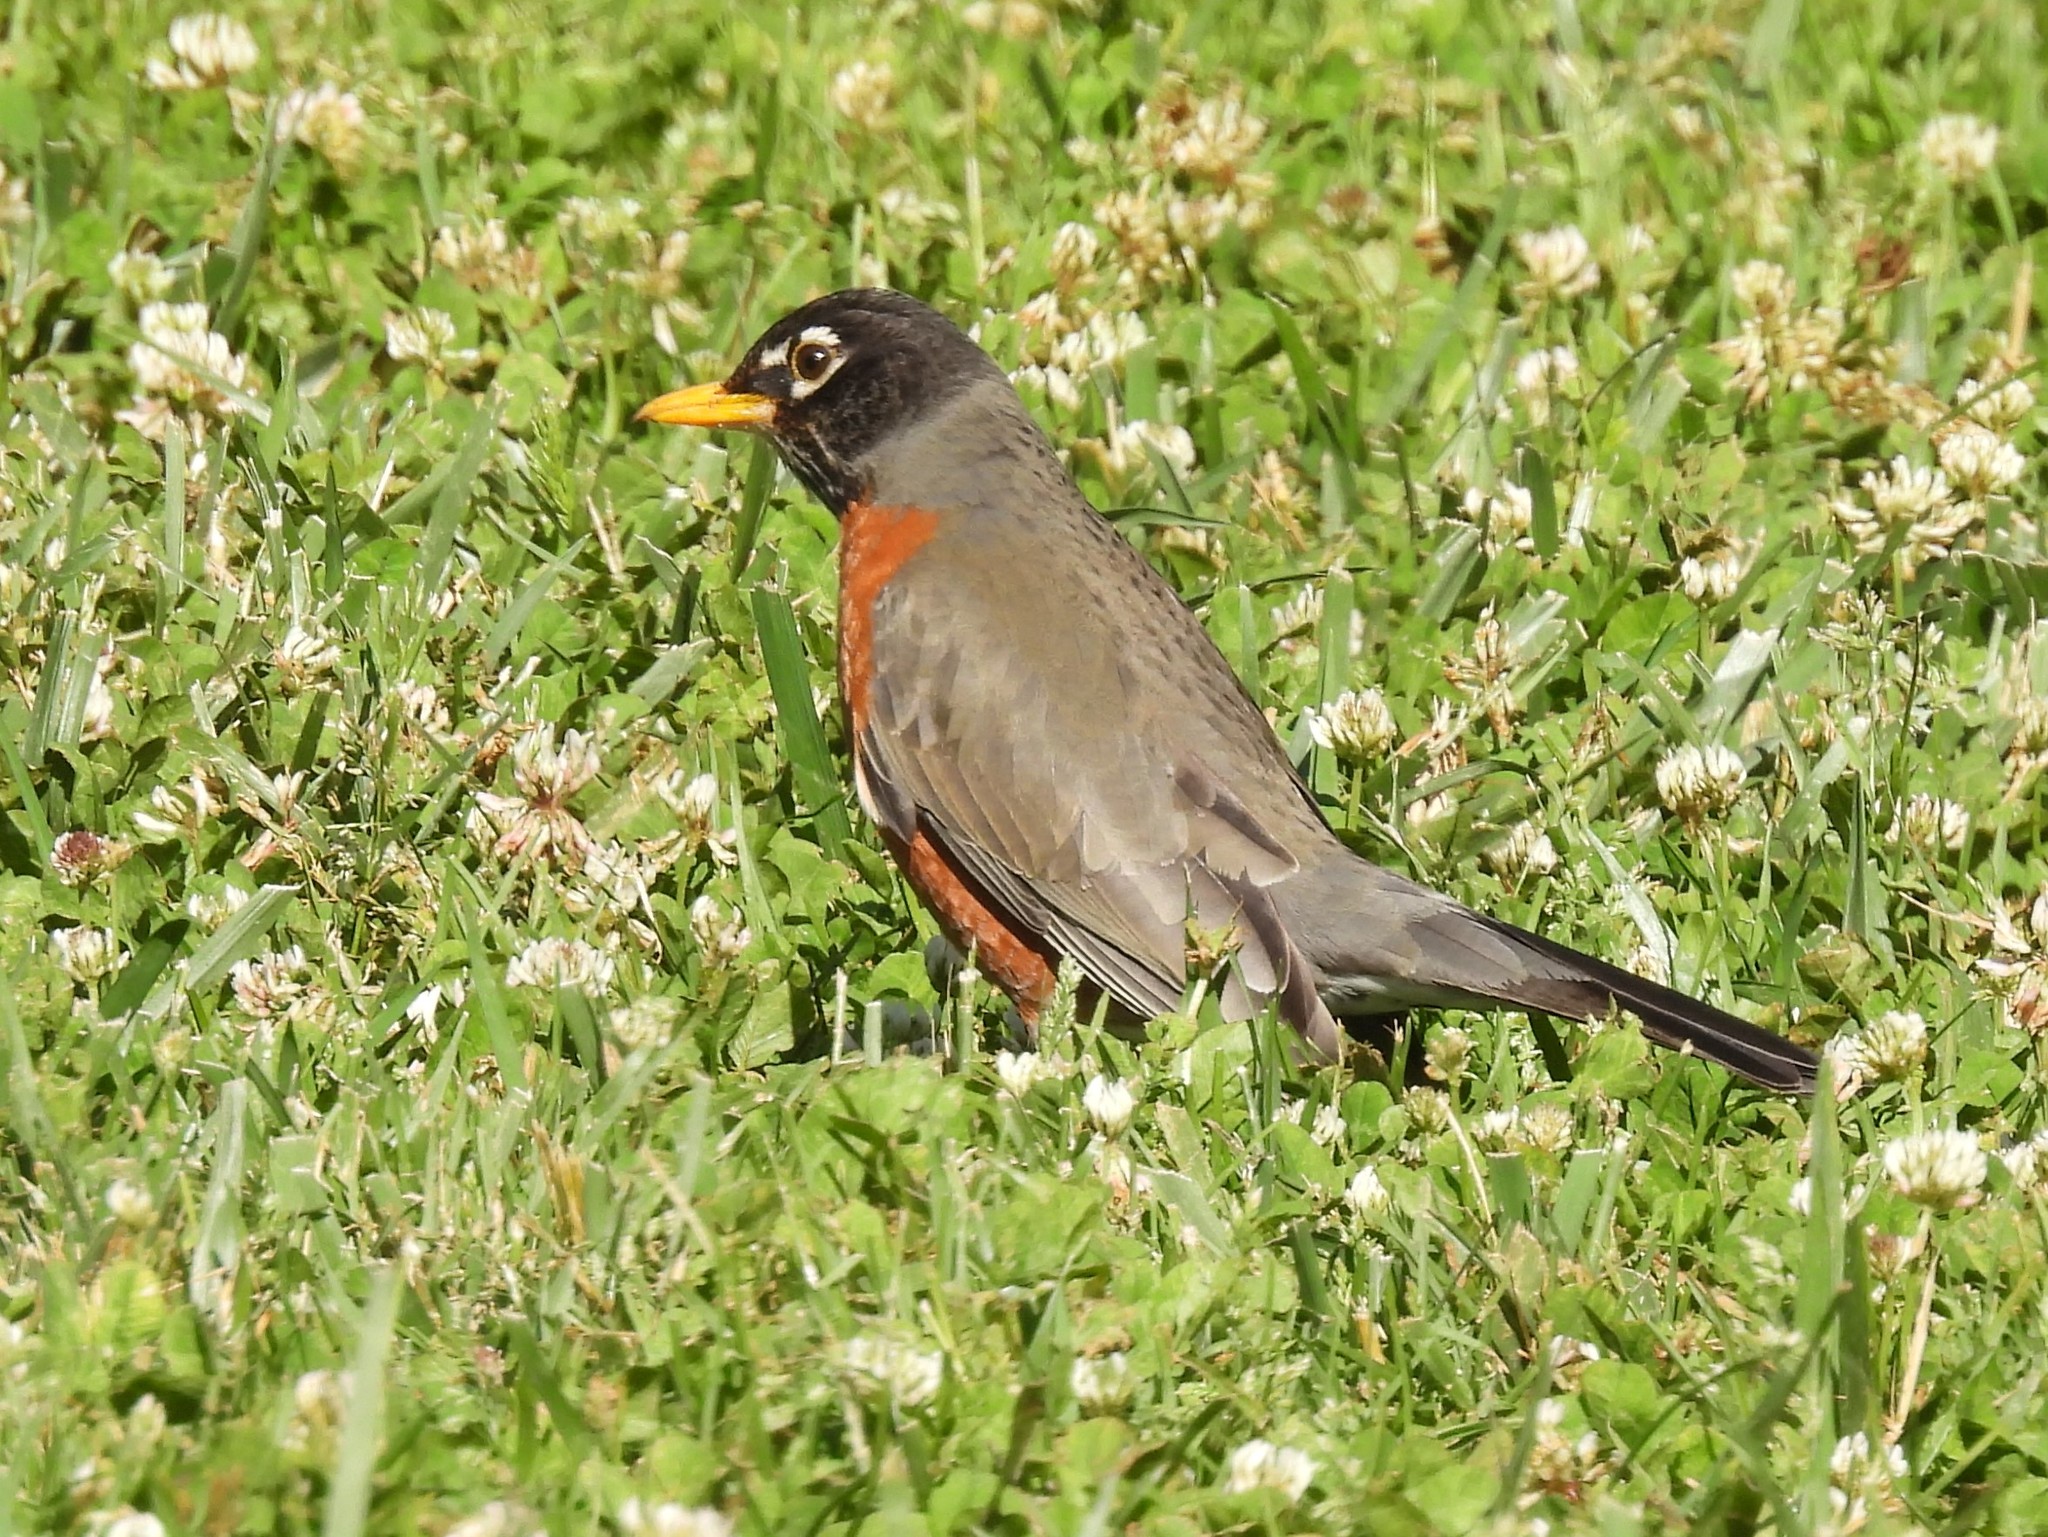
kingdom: Animalia
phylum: Chordata
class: Aves
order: Passeriformes
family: Turdidae
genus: Turdus
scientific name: Turdus migratorius
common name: American robin
